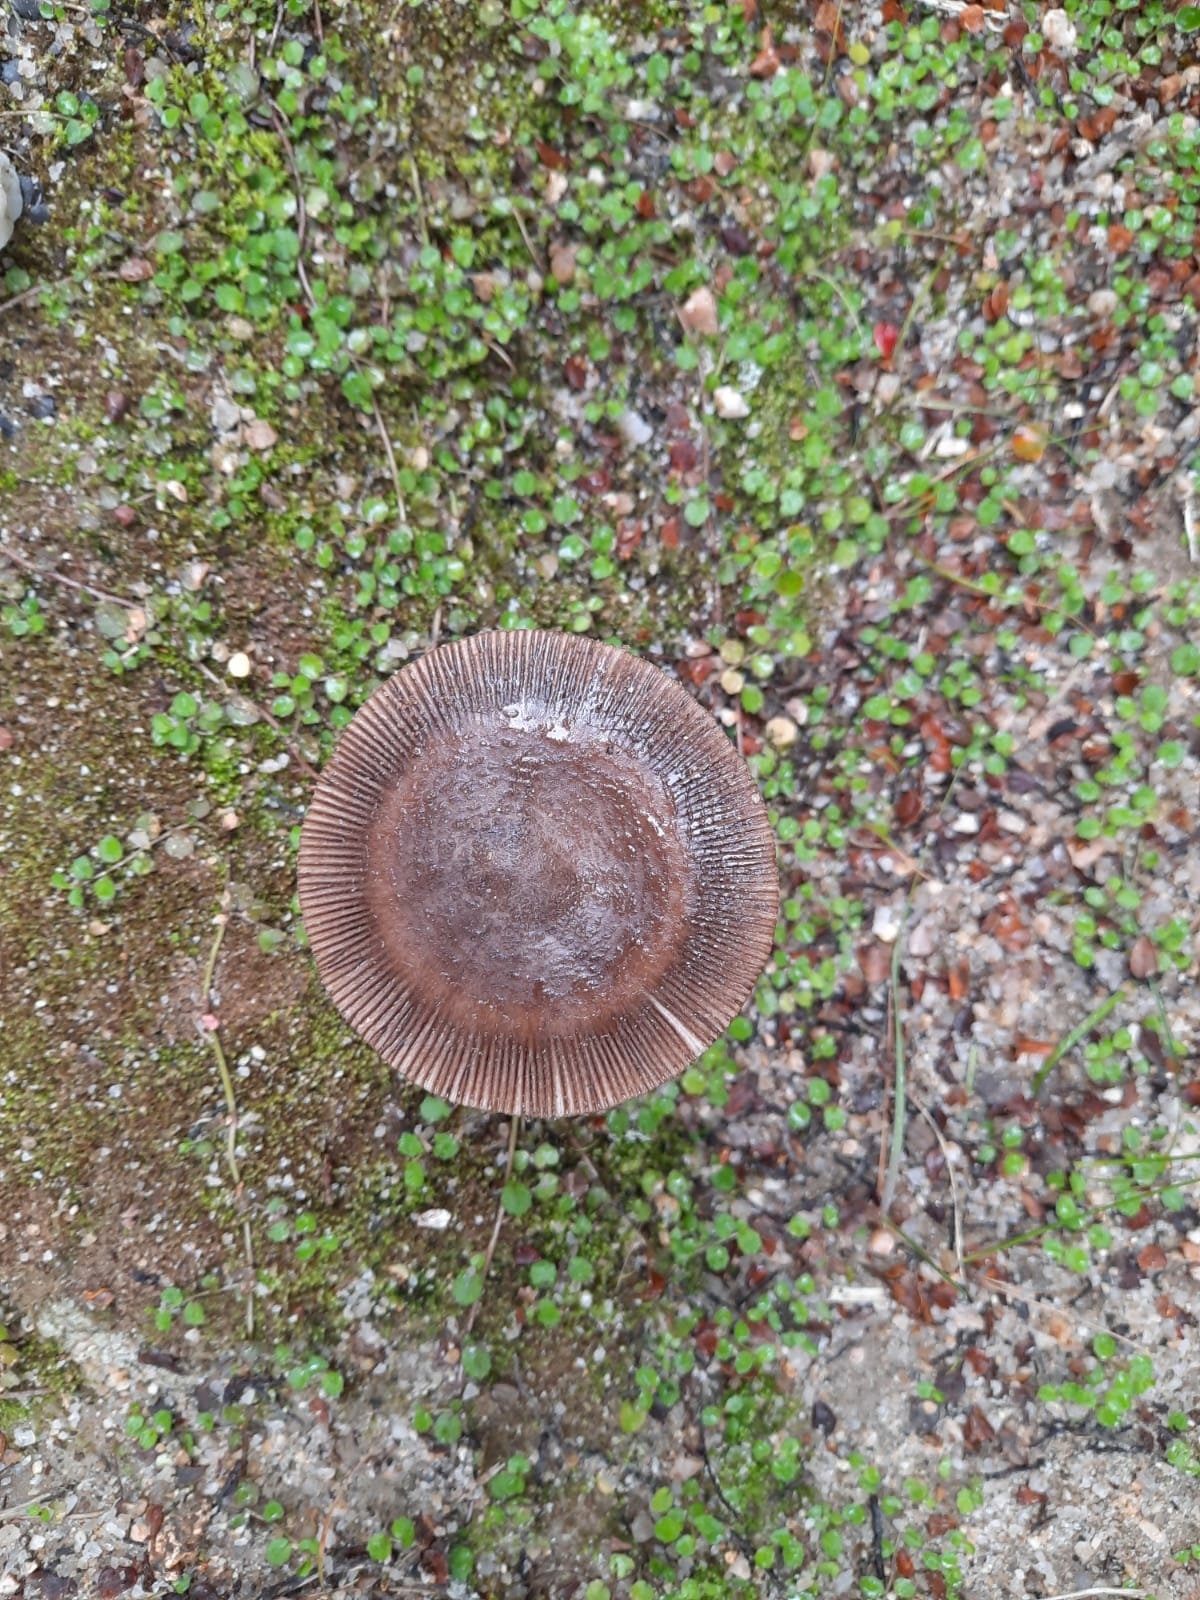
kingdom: Fungi
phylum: Basidiomycota
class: Agaricomycetes
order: Agaricales
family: Amanitaceae
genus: Amanita
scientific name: Amanita pekeoides
